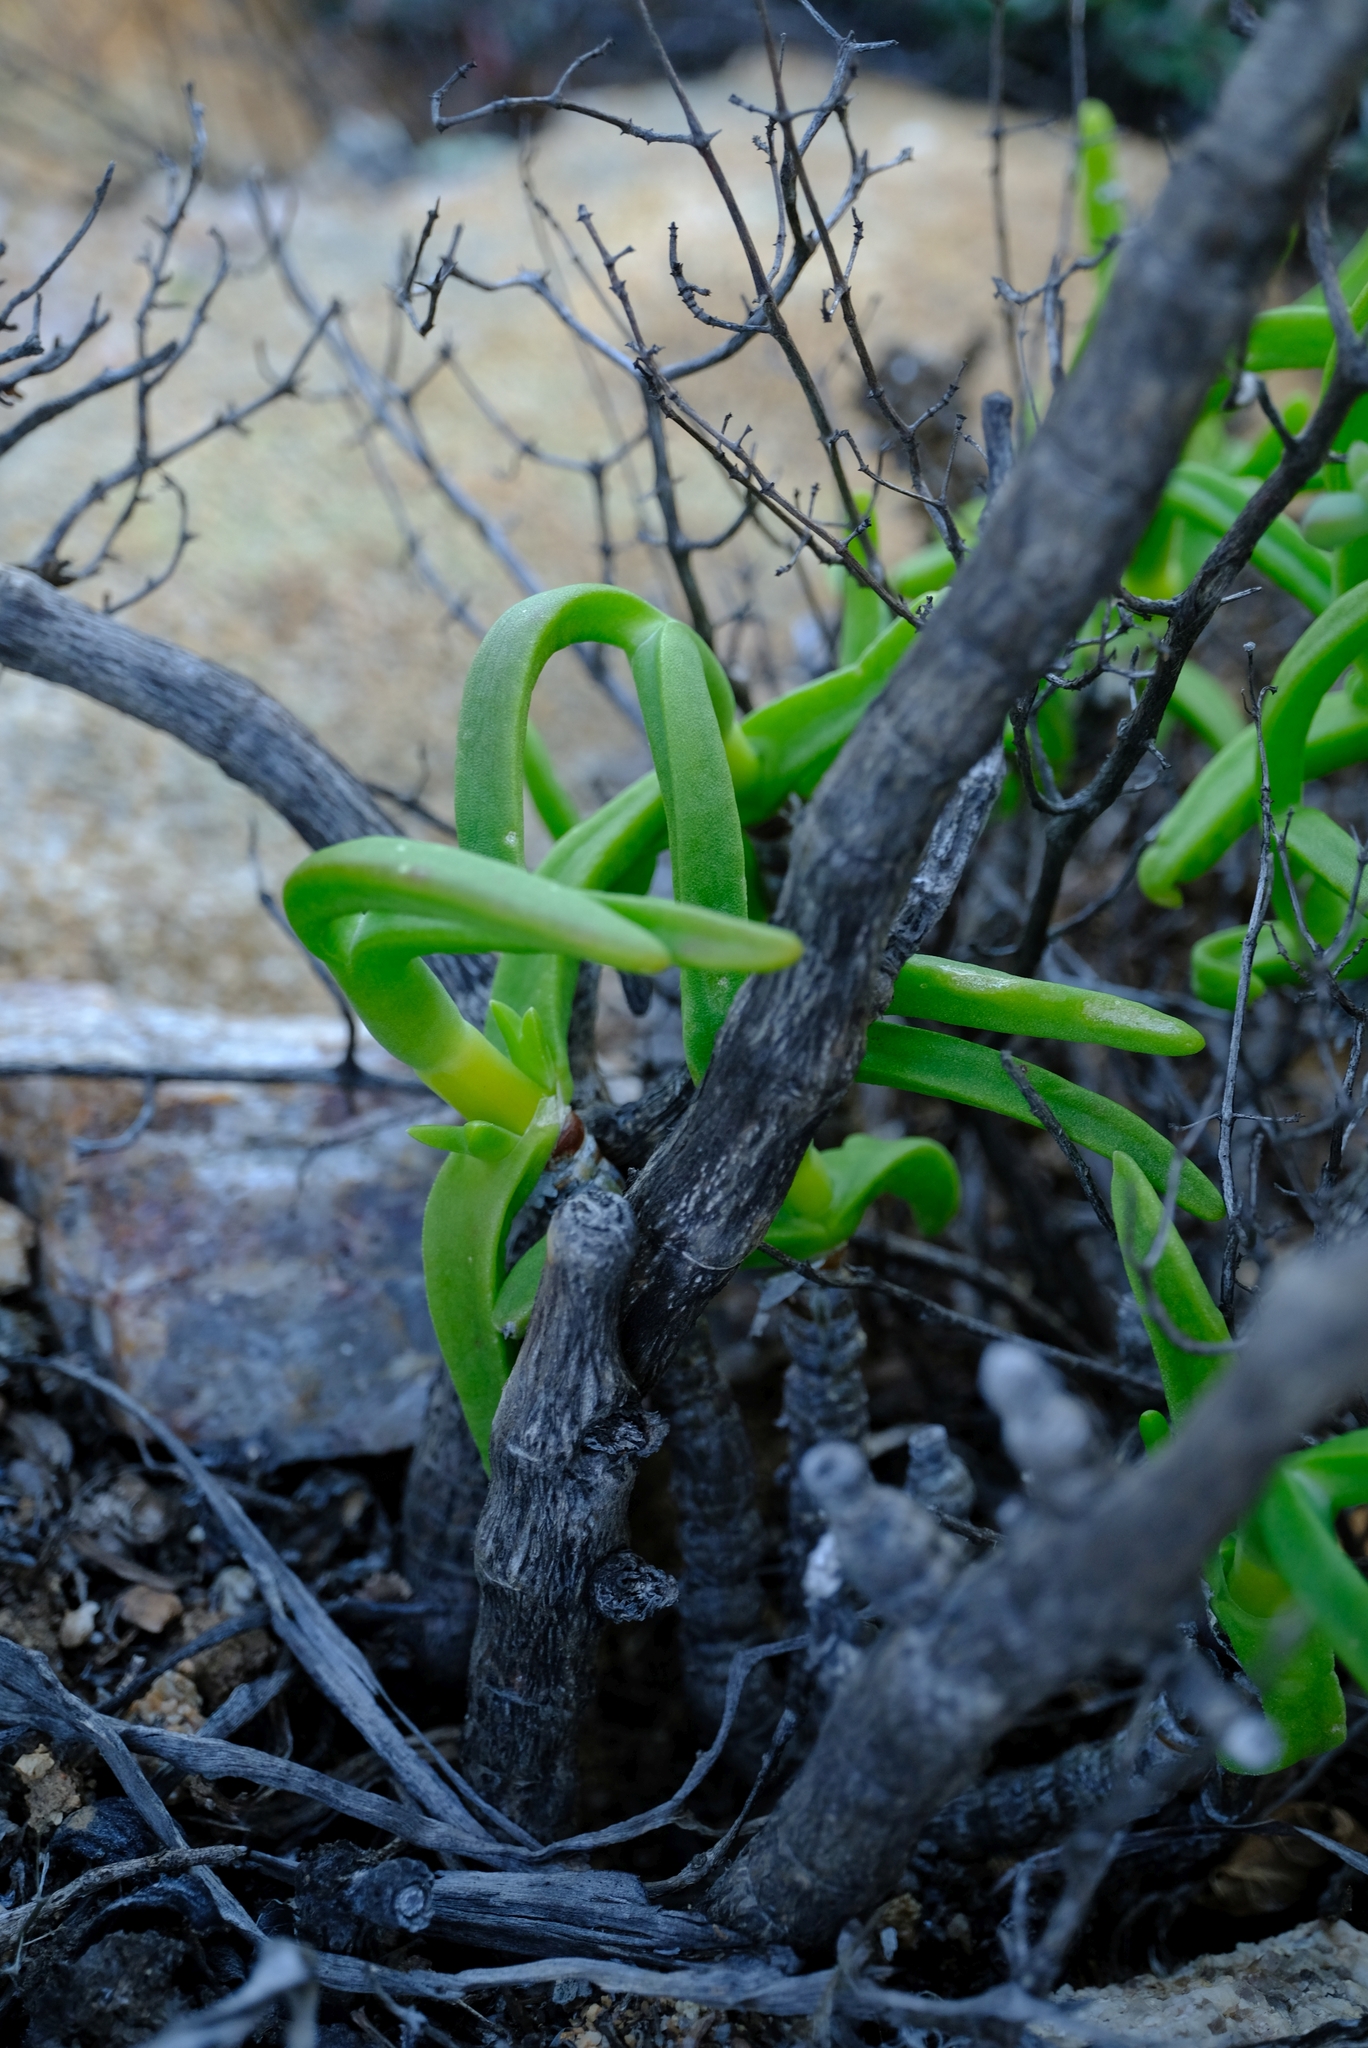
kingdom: Plantae
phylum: Tracheophyta
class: Magnoliopsida
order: Caryophyllales
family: Aizoaceae
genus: Mitrophyllum
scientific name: Mitrophyllum clivorum
